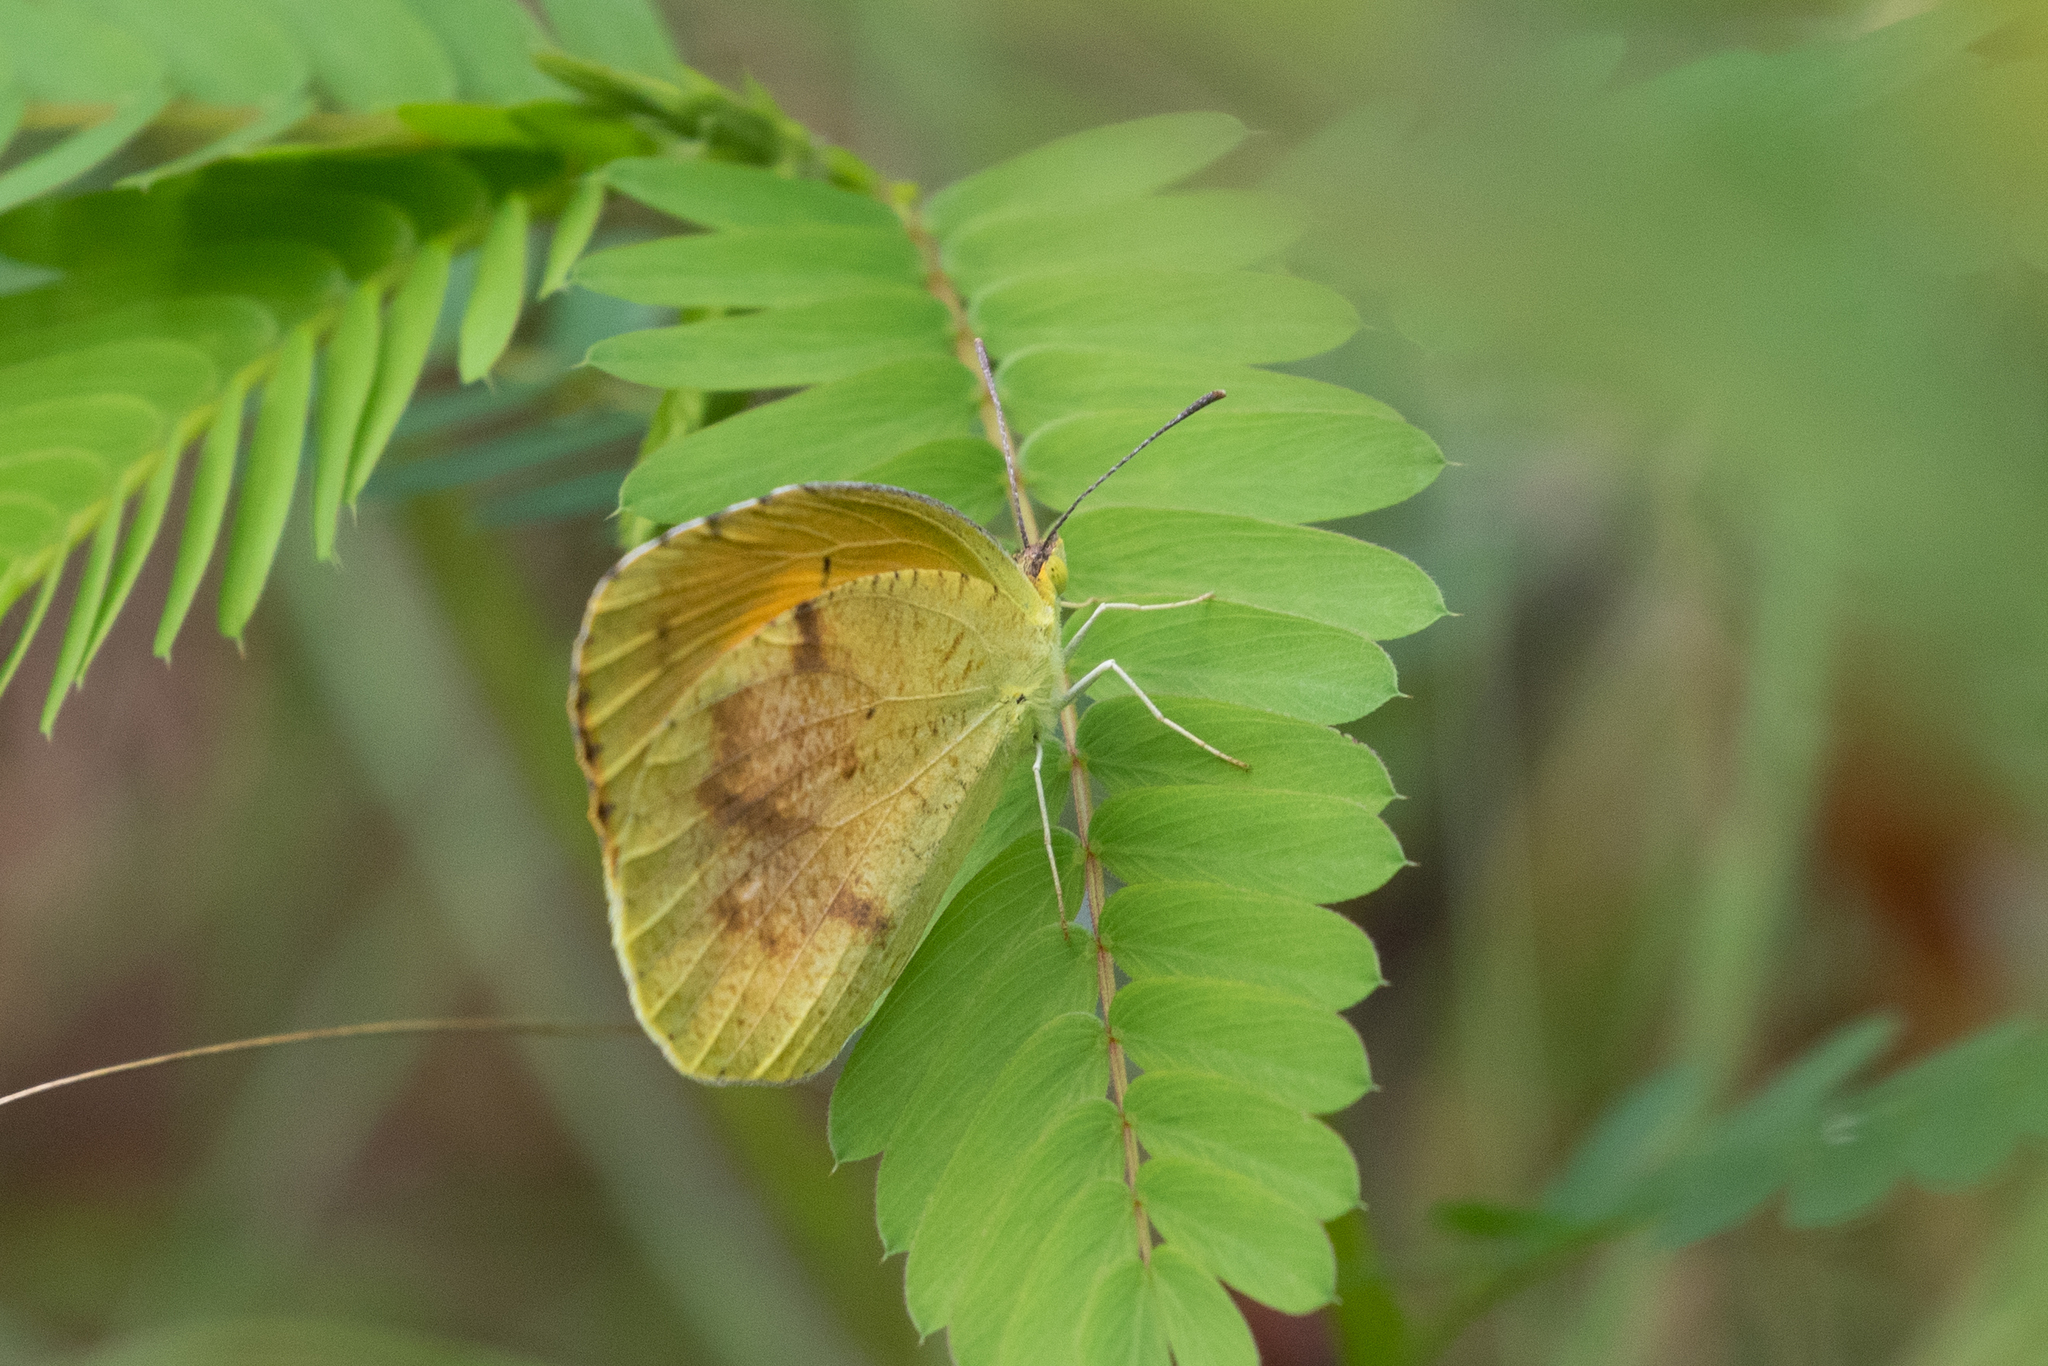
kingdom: Animalia
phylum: Arthropoda
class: Insecta
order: Lepidoptera
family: Pieridae
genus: Abaeis
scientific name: Abaeis nicippe
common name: Sleepy orange
